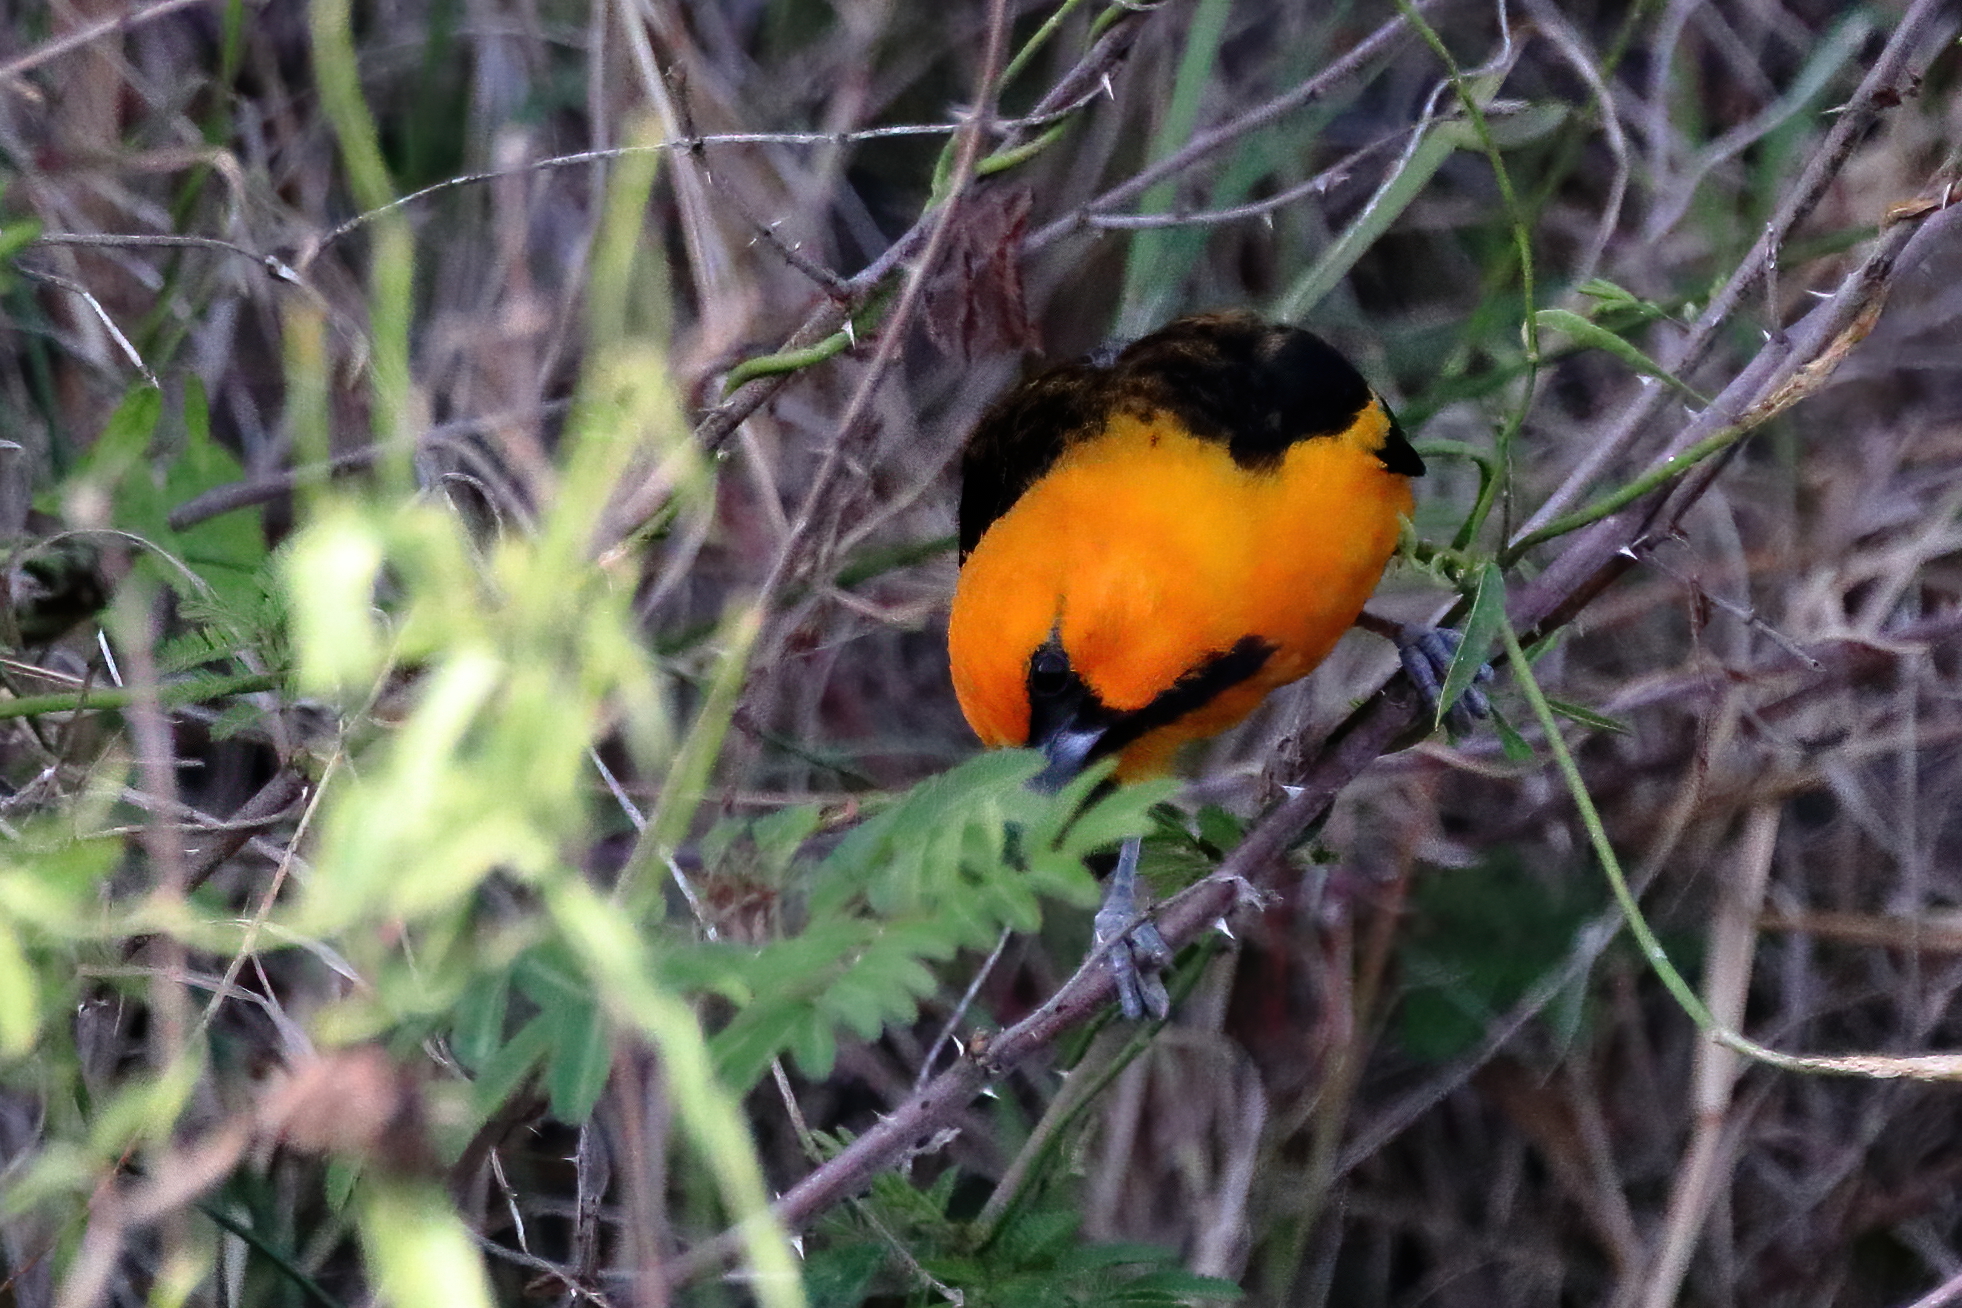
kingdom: Animalia
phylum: Chordata
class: Aves
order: Passeriformes
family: Icteridae
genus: Icterus
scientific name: Icterus gularis
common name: Altamira oriole
